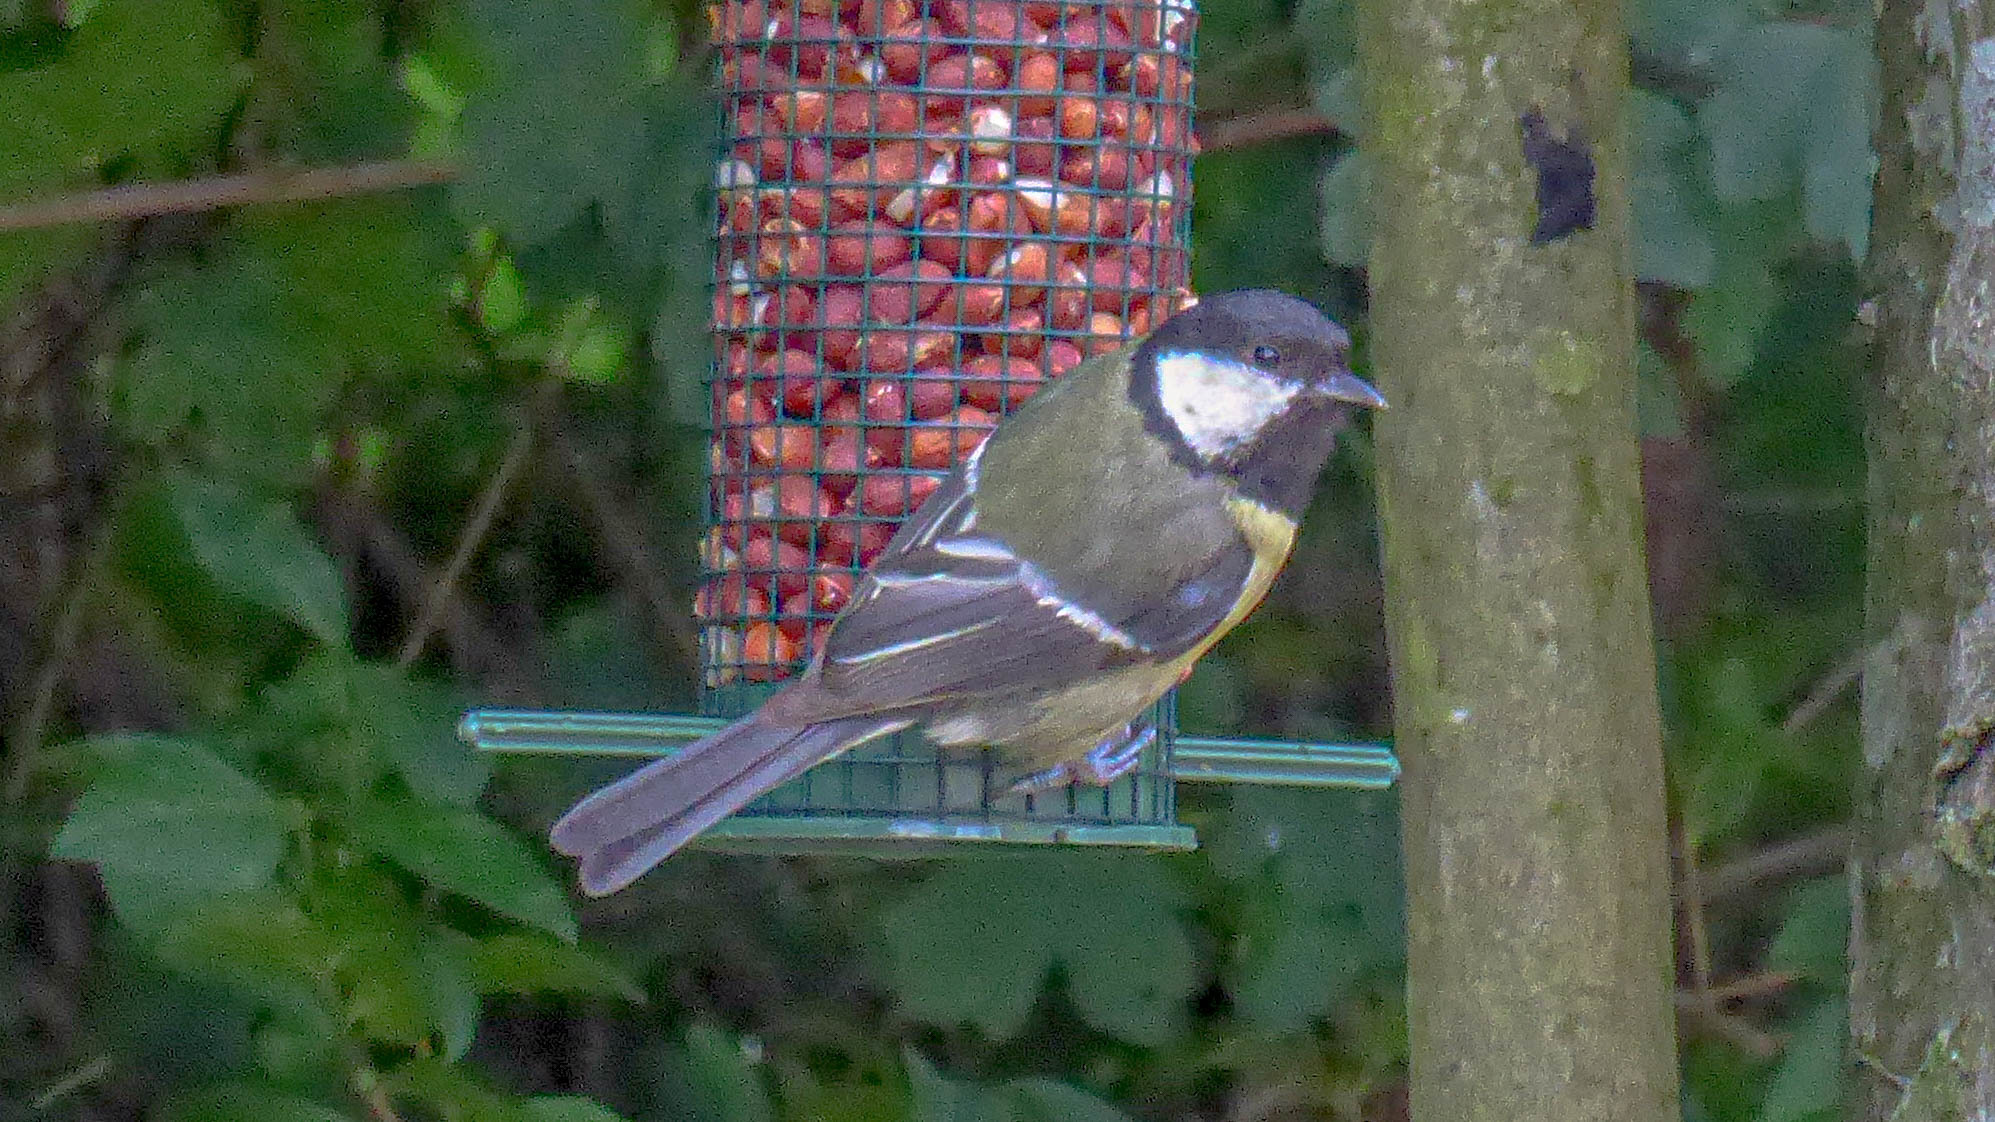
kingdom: Animalia
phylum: Chordata
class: Aves
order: Passeriformes
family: Paridae
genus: Parus
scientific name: Parus major
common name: Great tit
